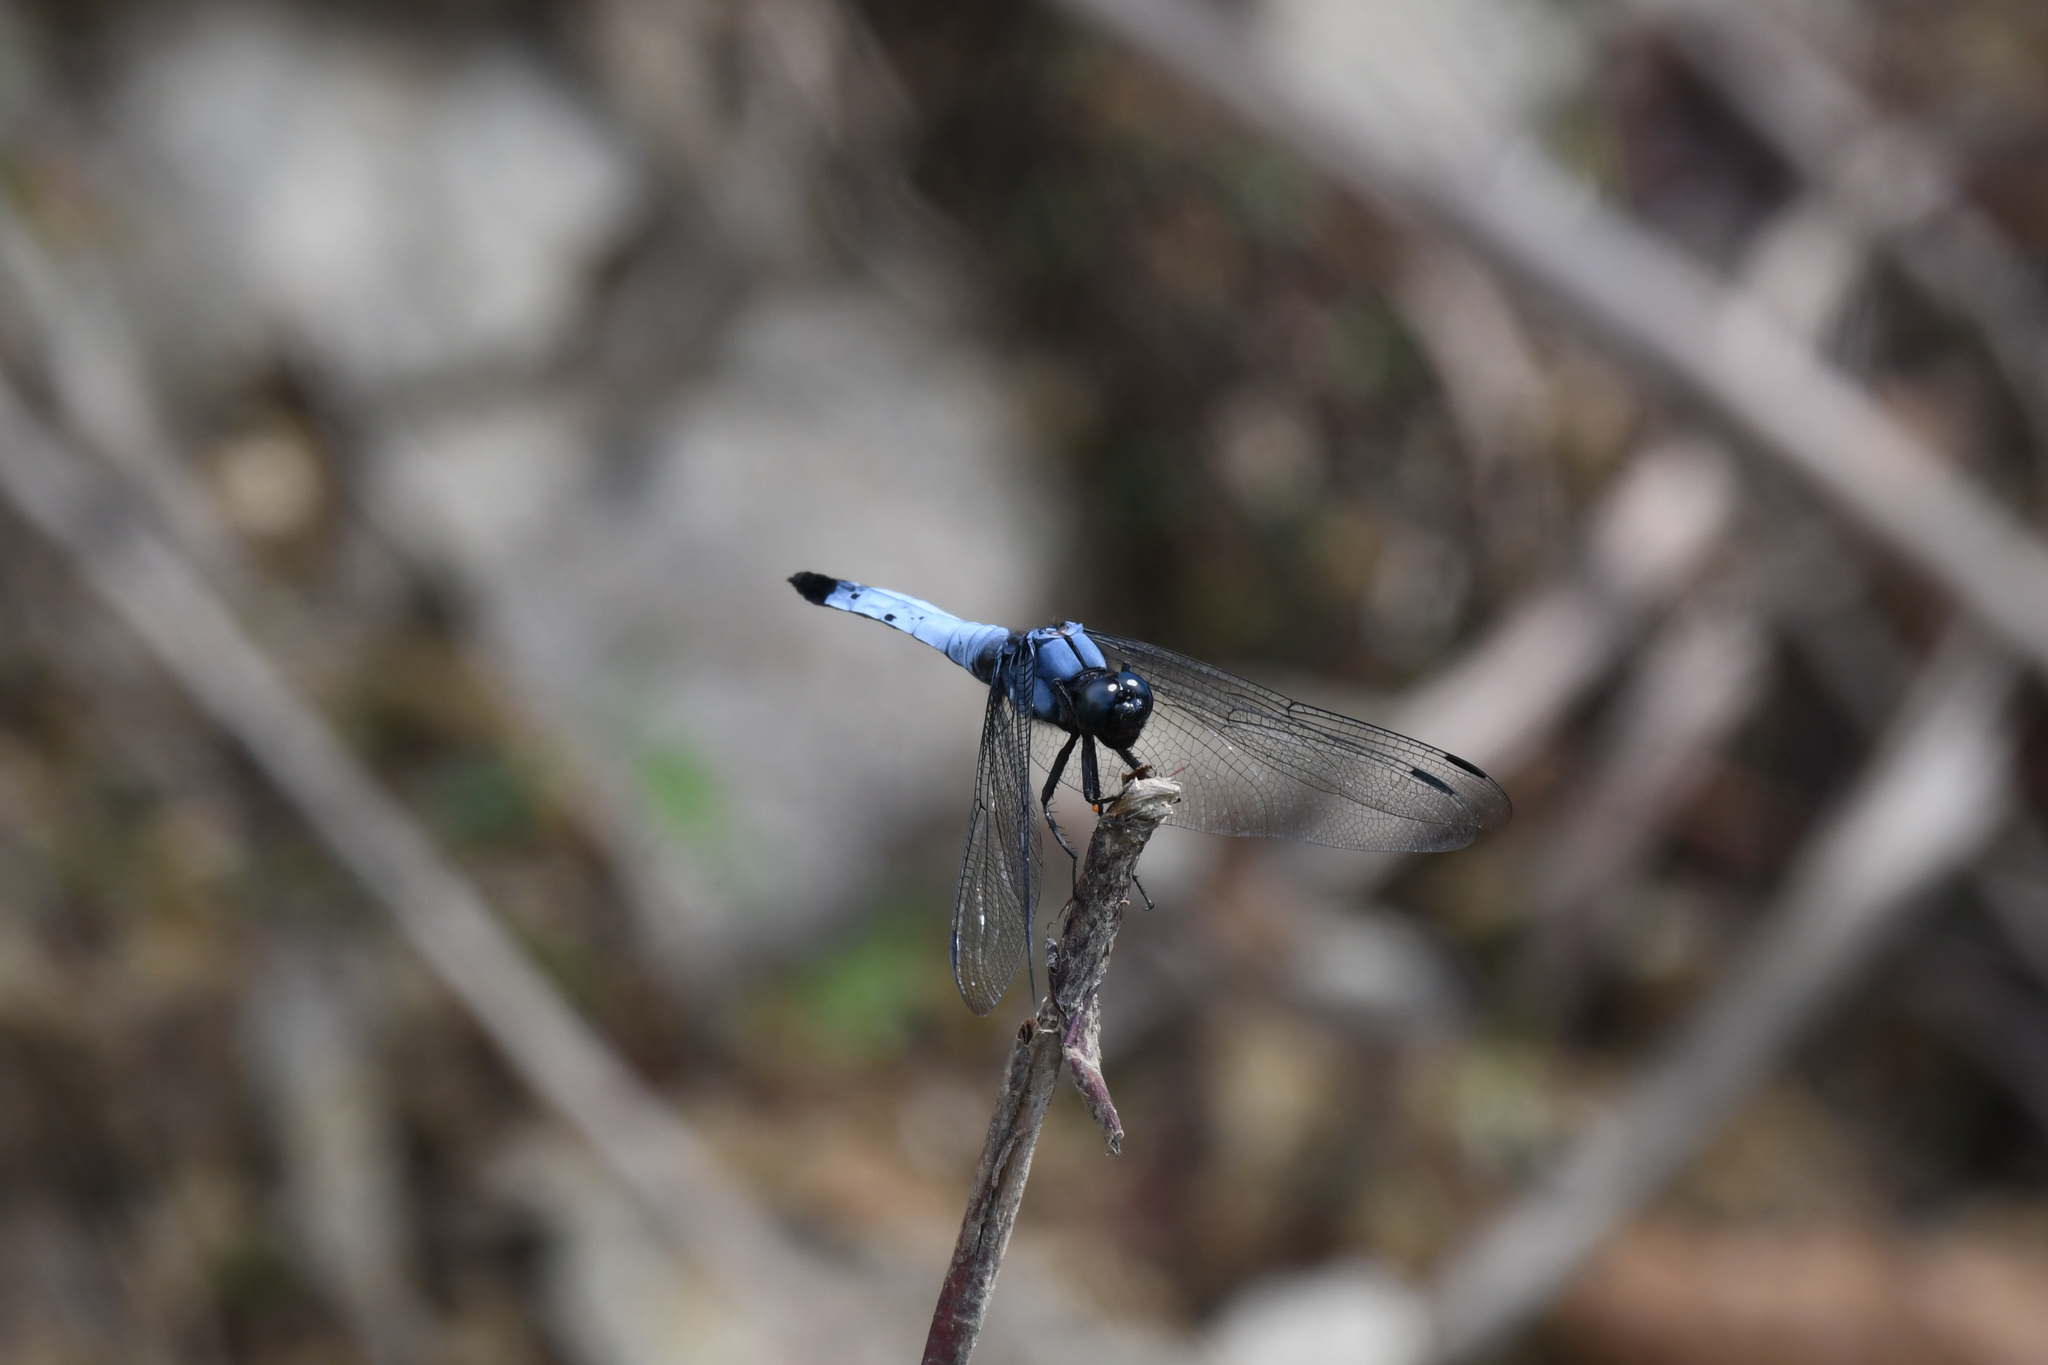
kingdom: Animalia
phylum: Arthropoda
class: Insecta
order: Odonata
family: Libellulidae
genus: Orthetrum
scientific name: Orthetrum melania
